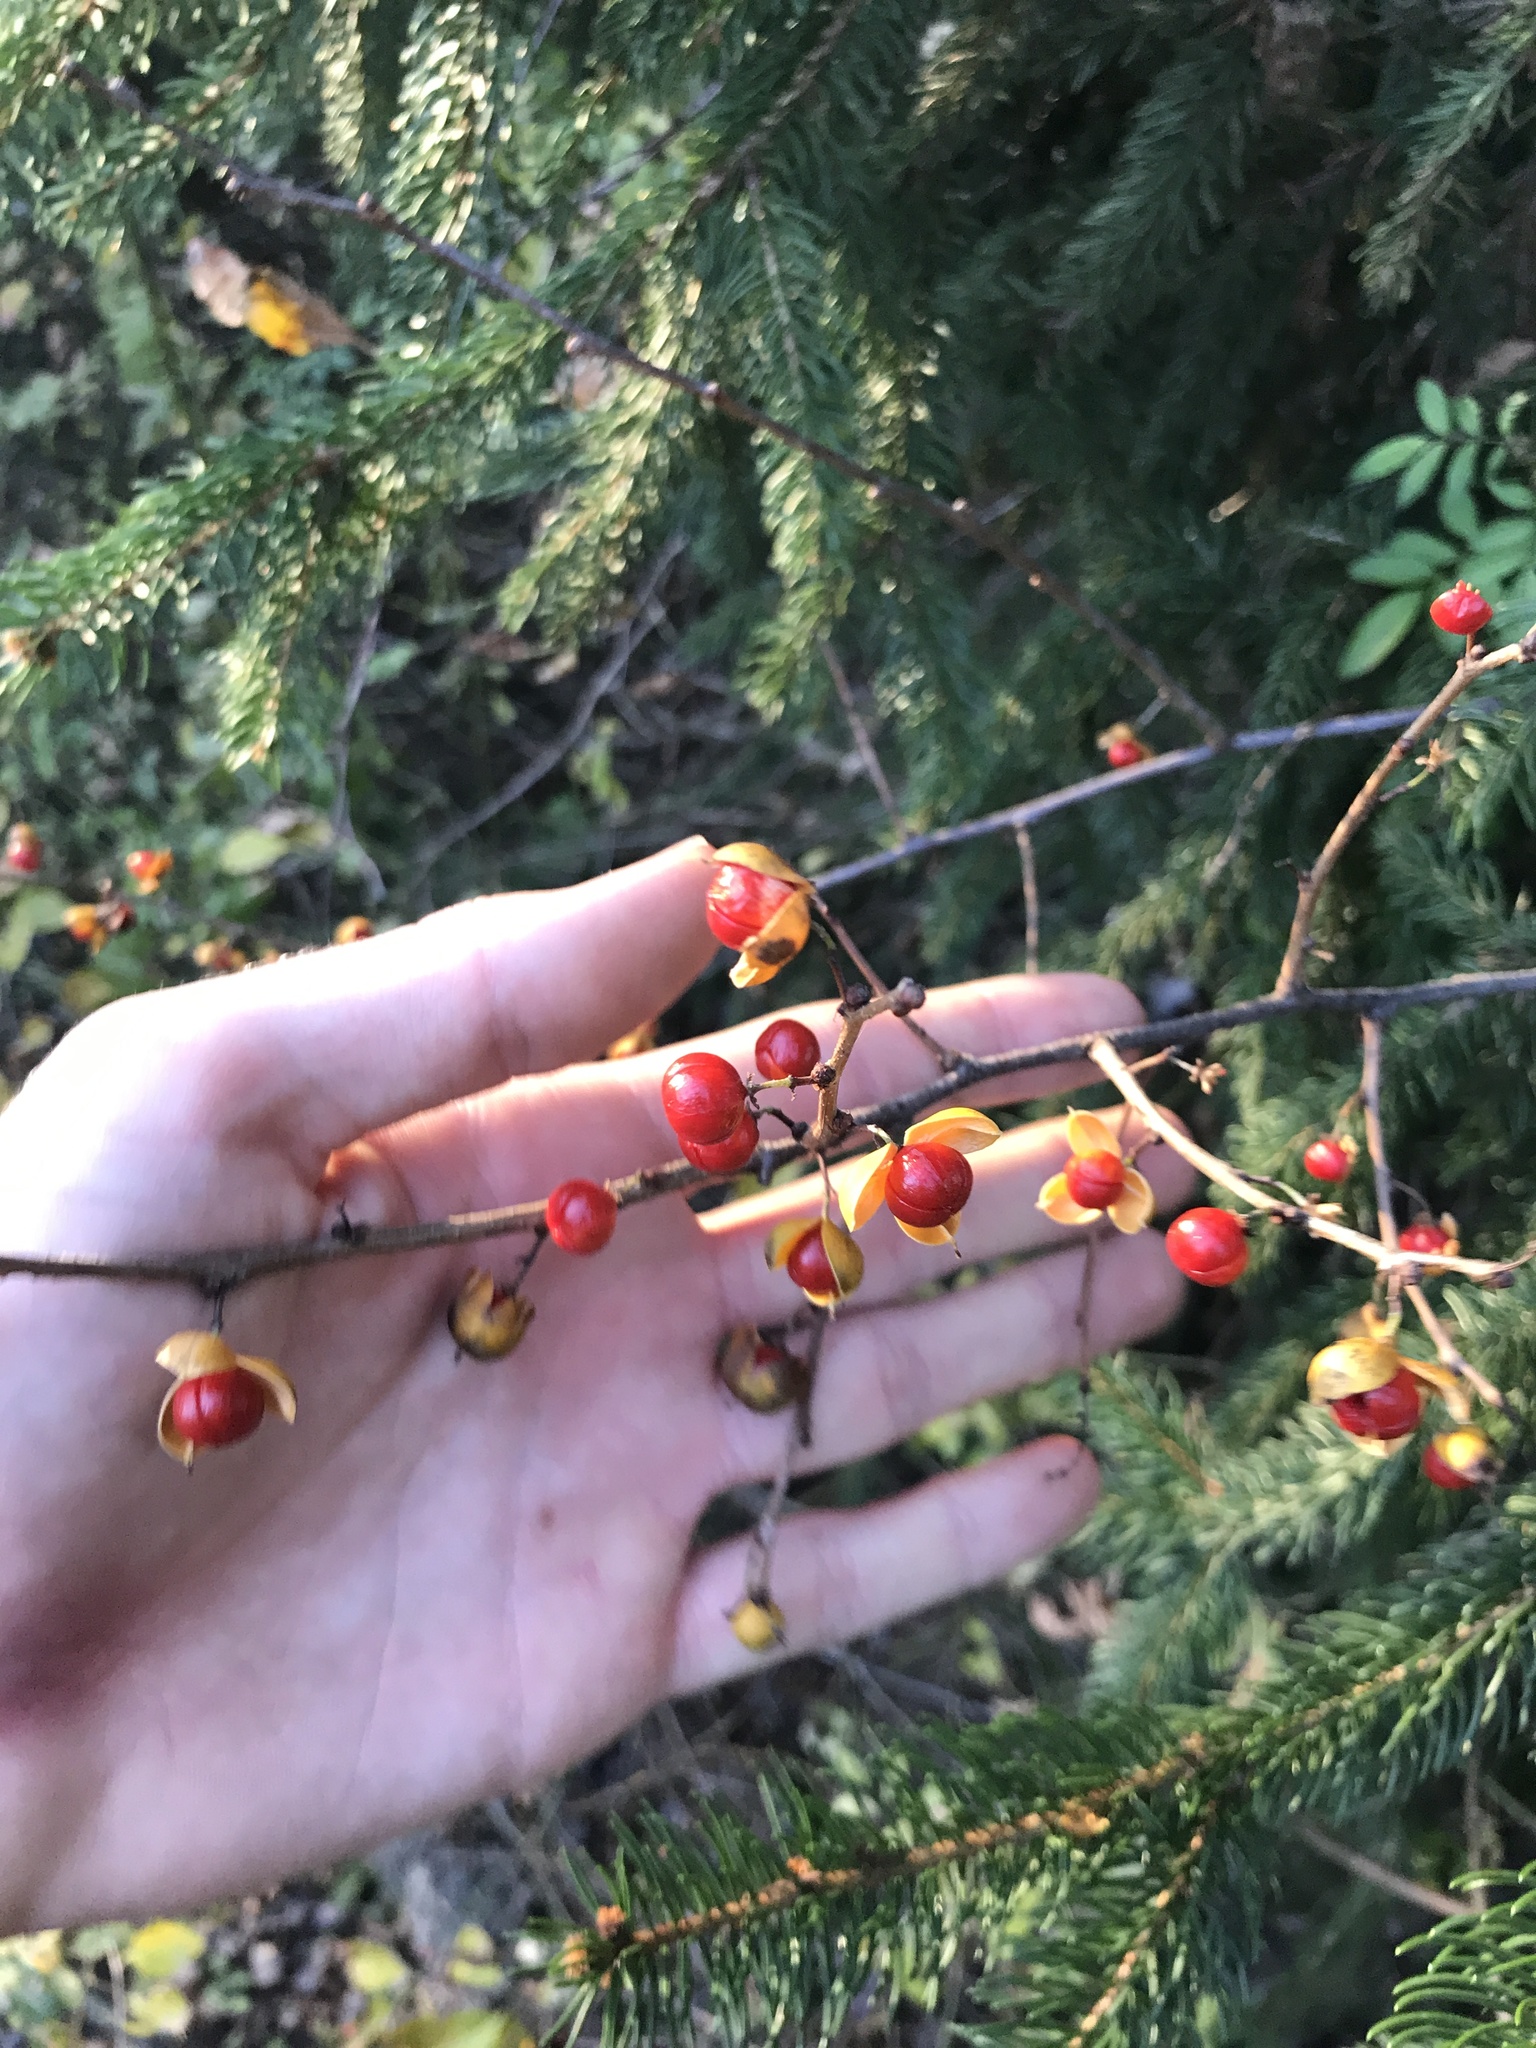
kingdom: Plantae
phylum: Tracheophyta
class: Magnoliopsida
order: Celastrales
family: Celastraceae
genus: Celastrus
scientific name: Celastrus orbiculatus
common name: Oriental bittersweet
